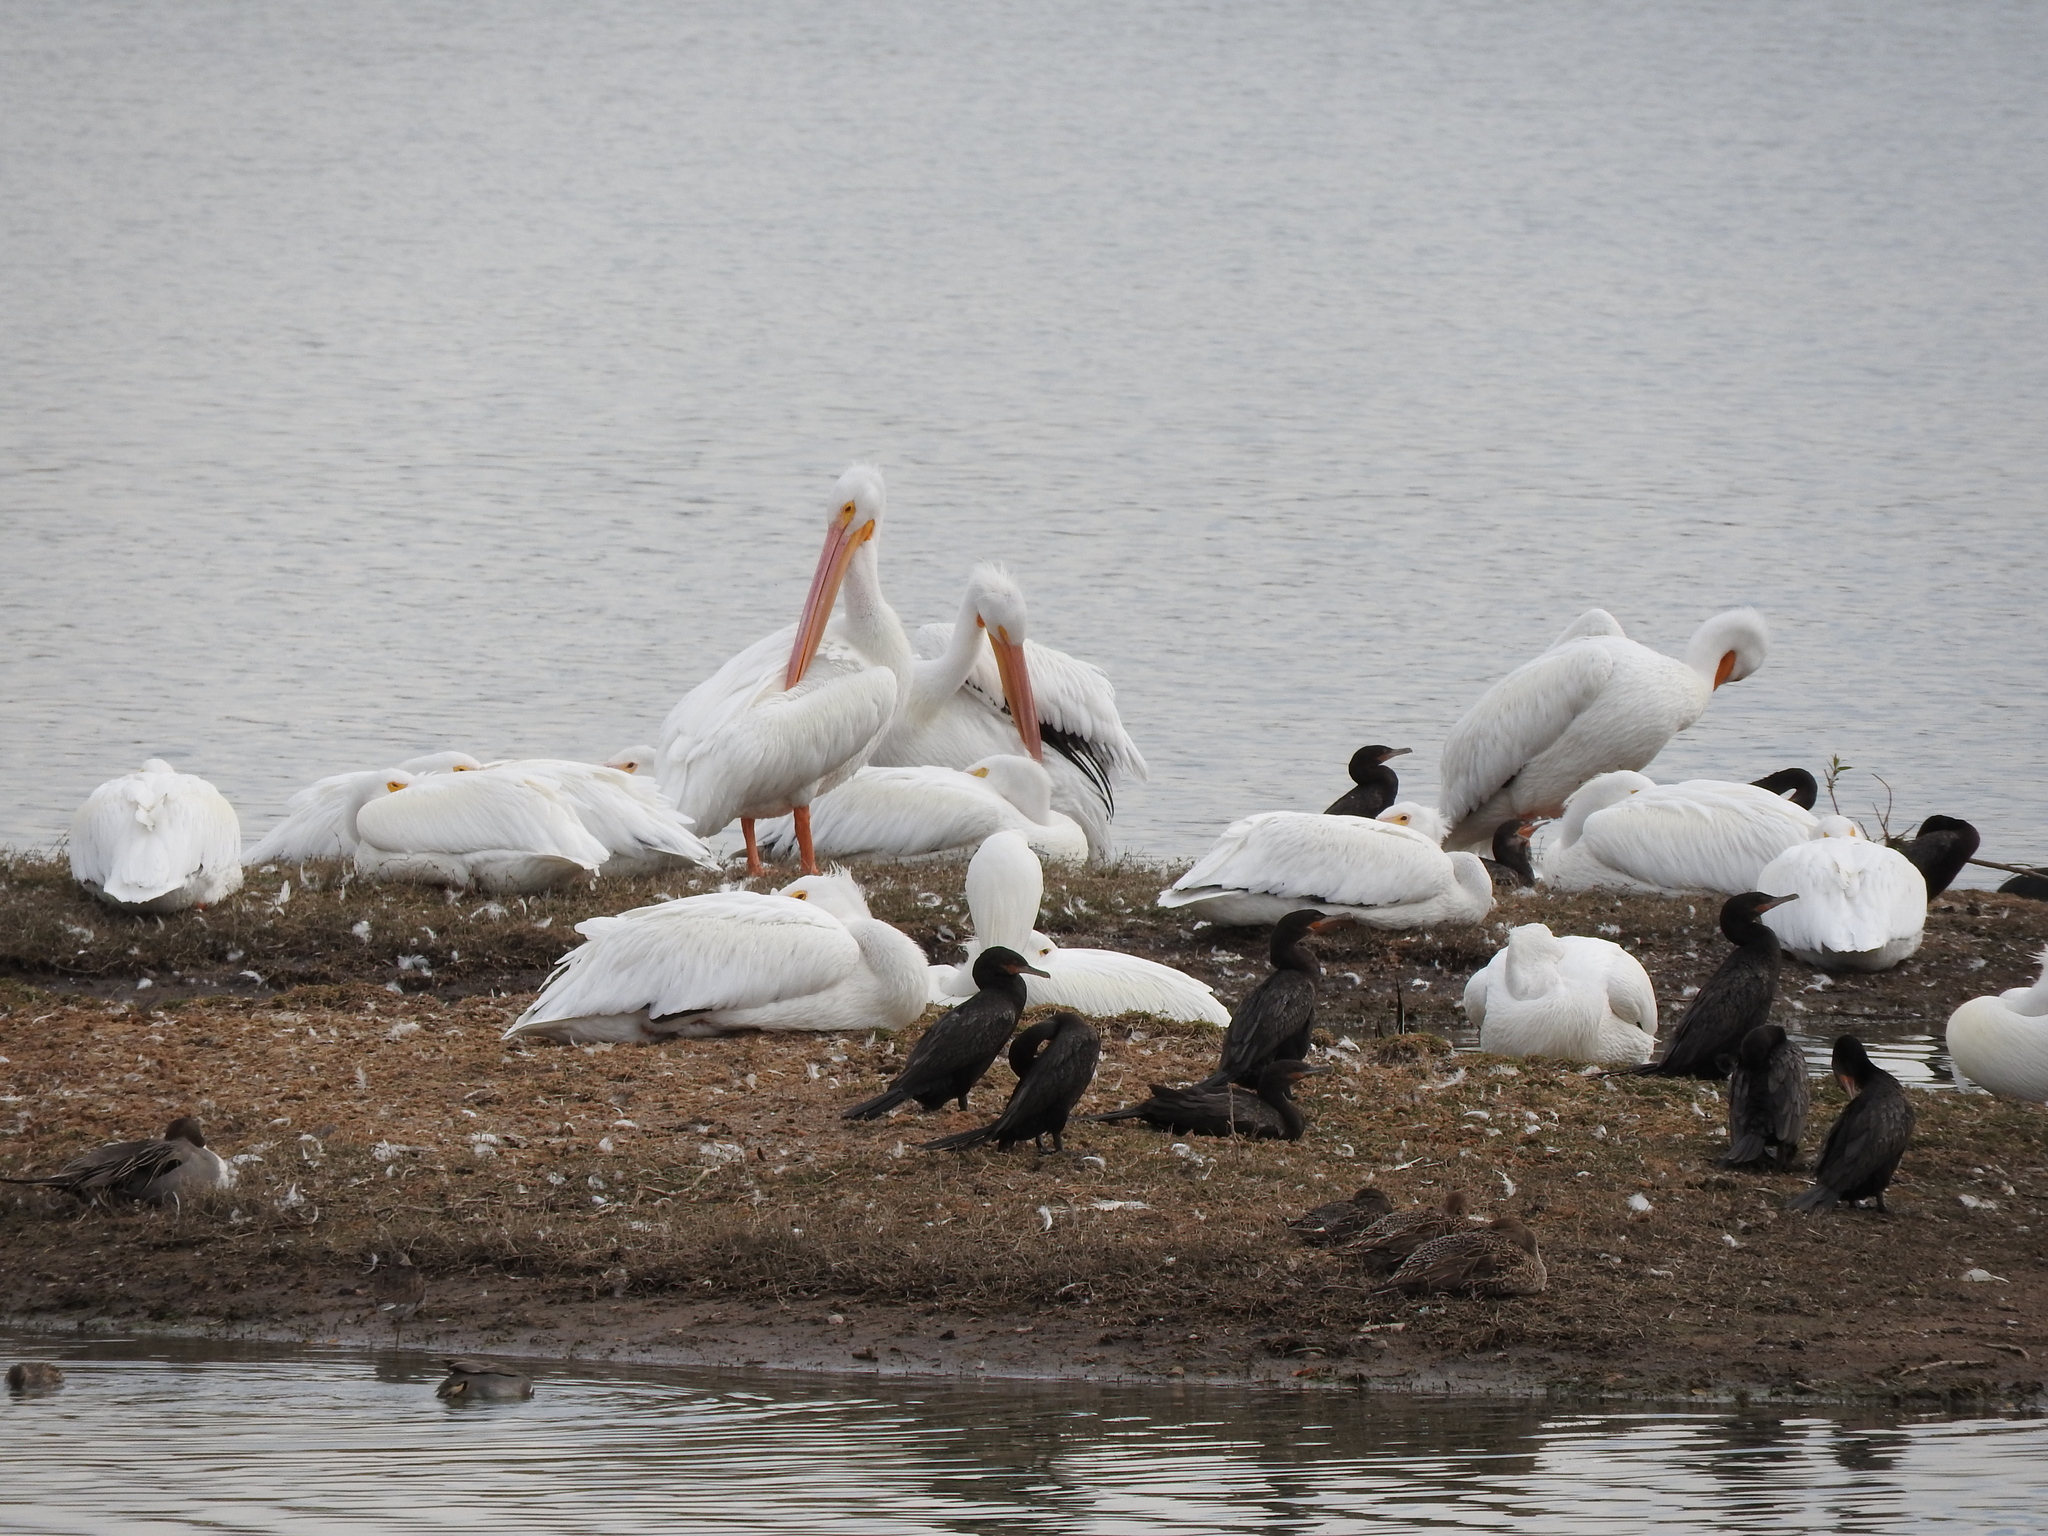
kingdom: Animalia
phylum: Chordata
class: Aves
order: Pelecaniformes
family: Pelecanidae
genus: Pelecanus
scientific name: Pelecanus erythrorhynchos
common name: American white pelican
